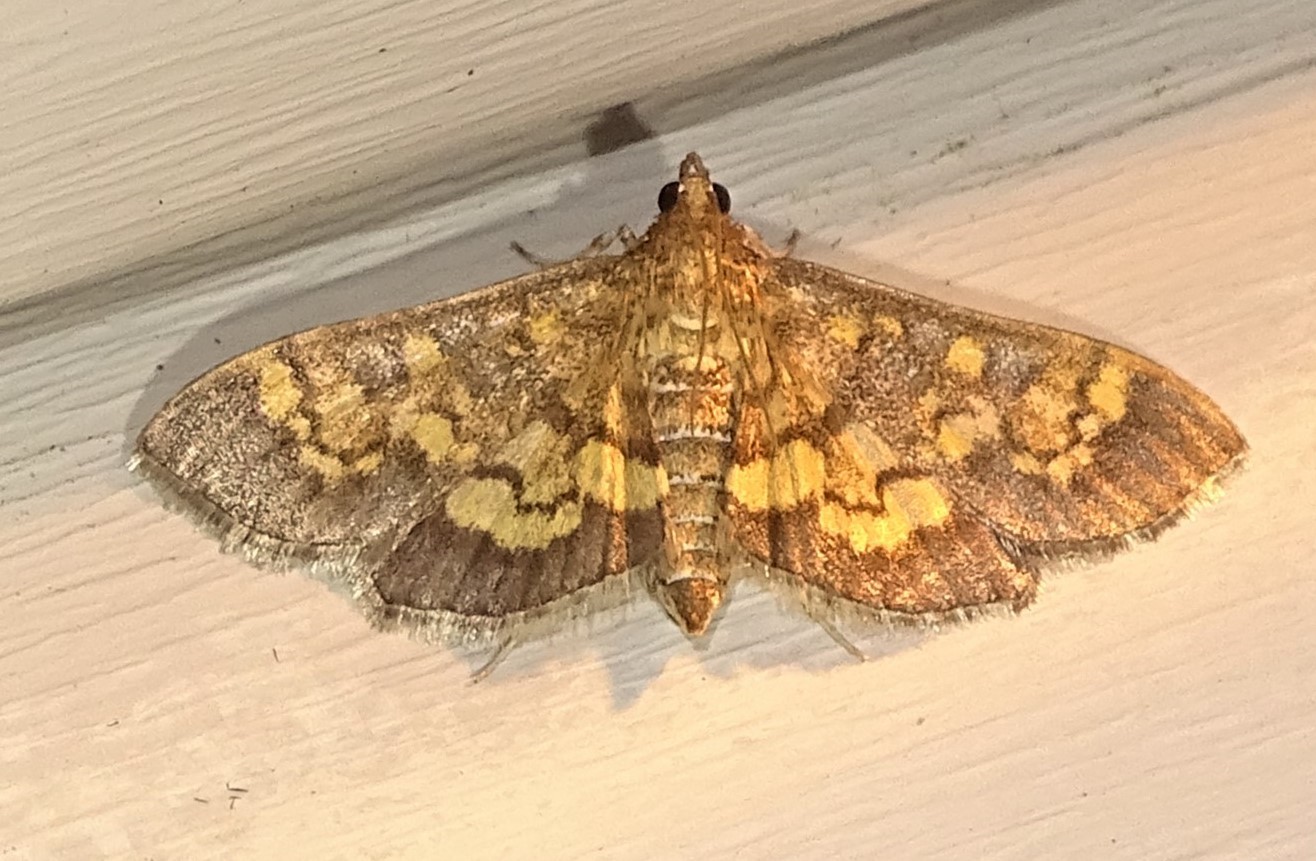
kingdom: Animalia
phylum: Arthropoda
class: Insecta
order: Lepidoptera
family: Crambidae
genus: Epipagis
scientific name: Epipagis adipaloides
